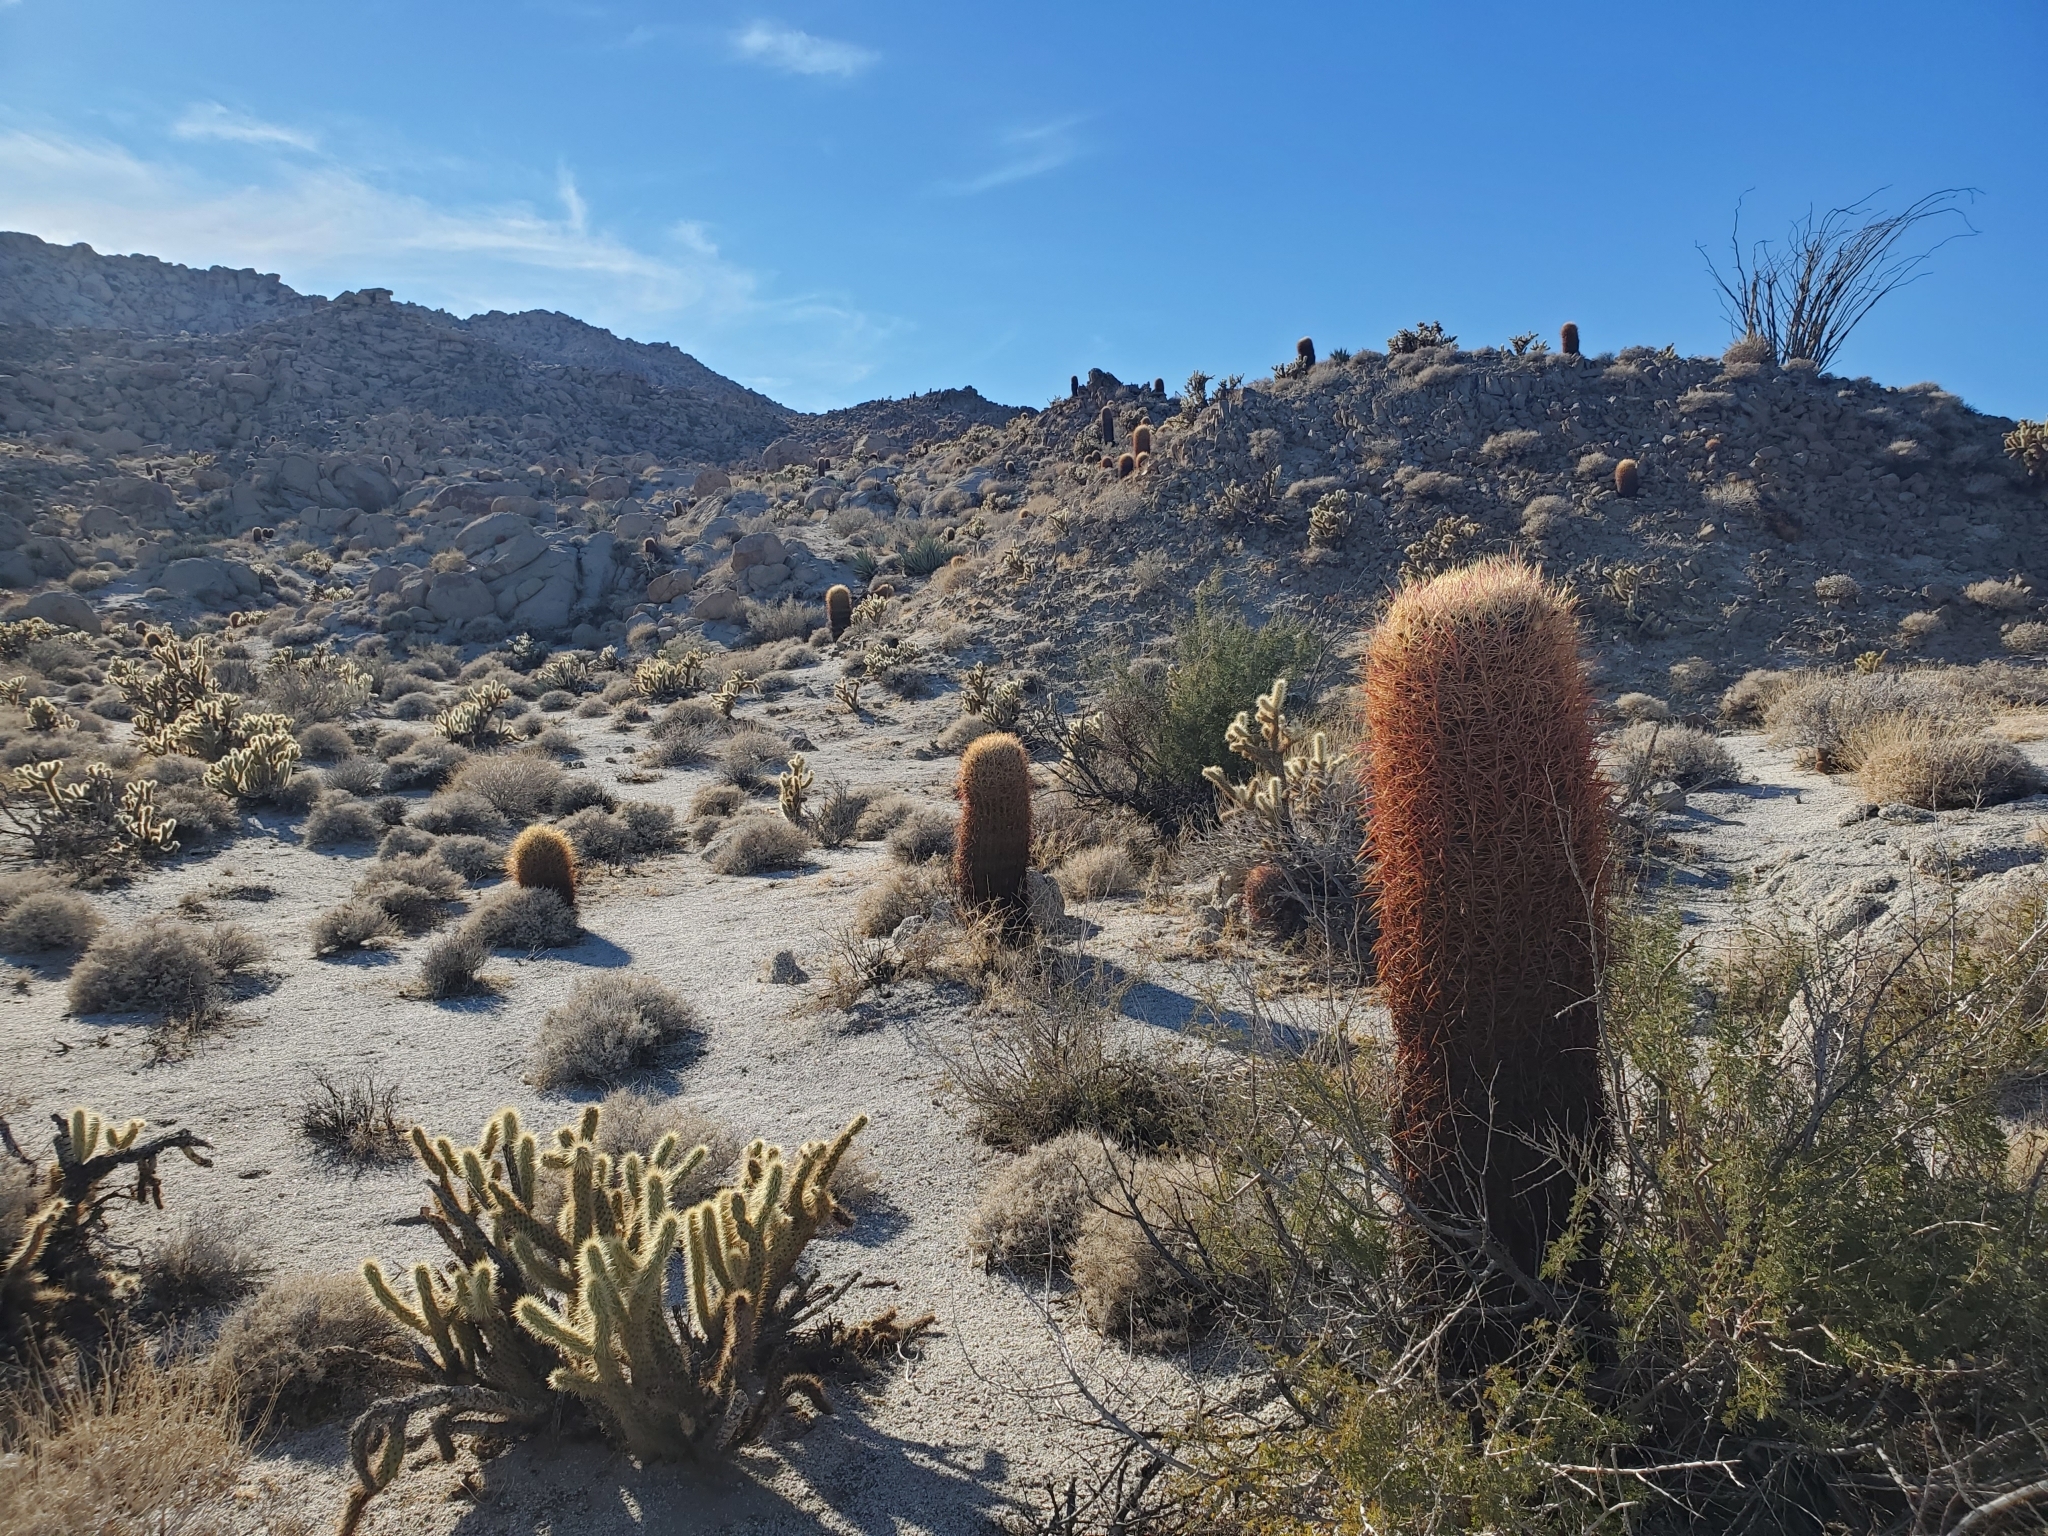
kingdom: Plantae
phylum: Tracheophyta
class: Magnoliopsida
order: Caryophyllales
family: Cactaceae
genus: Ferocactus
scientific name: Ferocactus cylindraceus
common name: California barrel cactus
